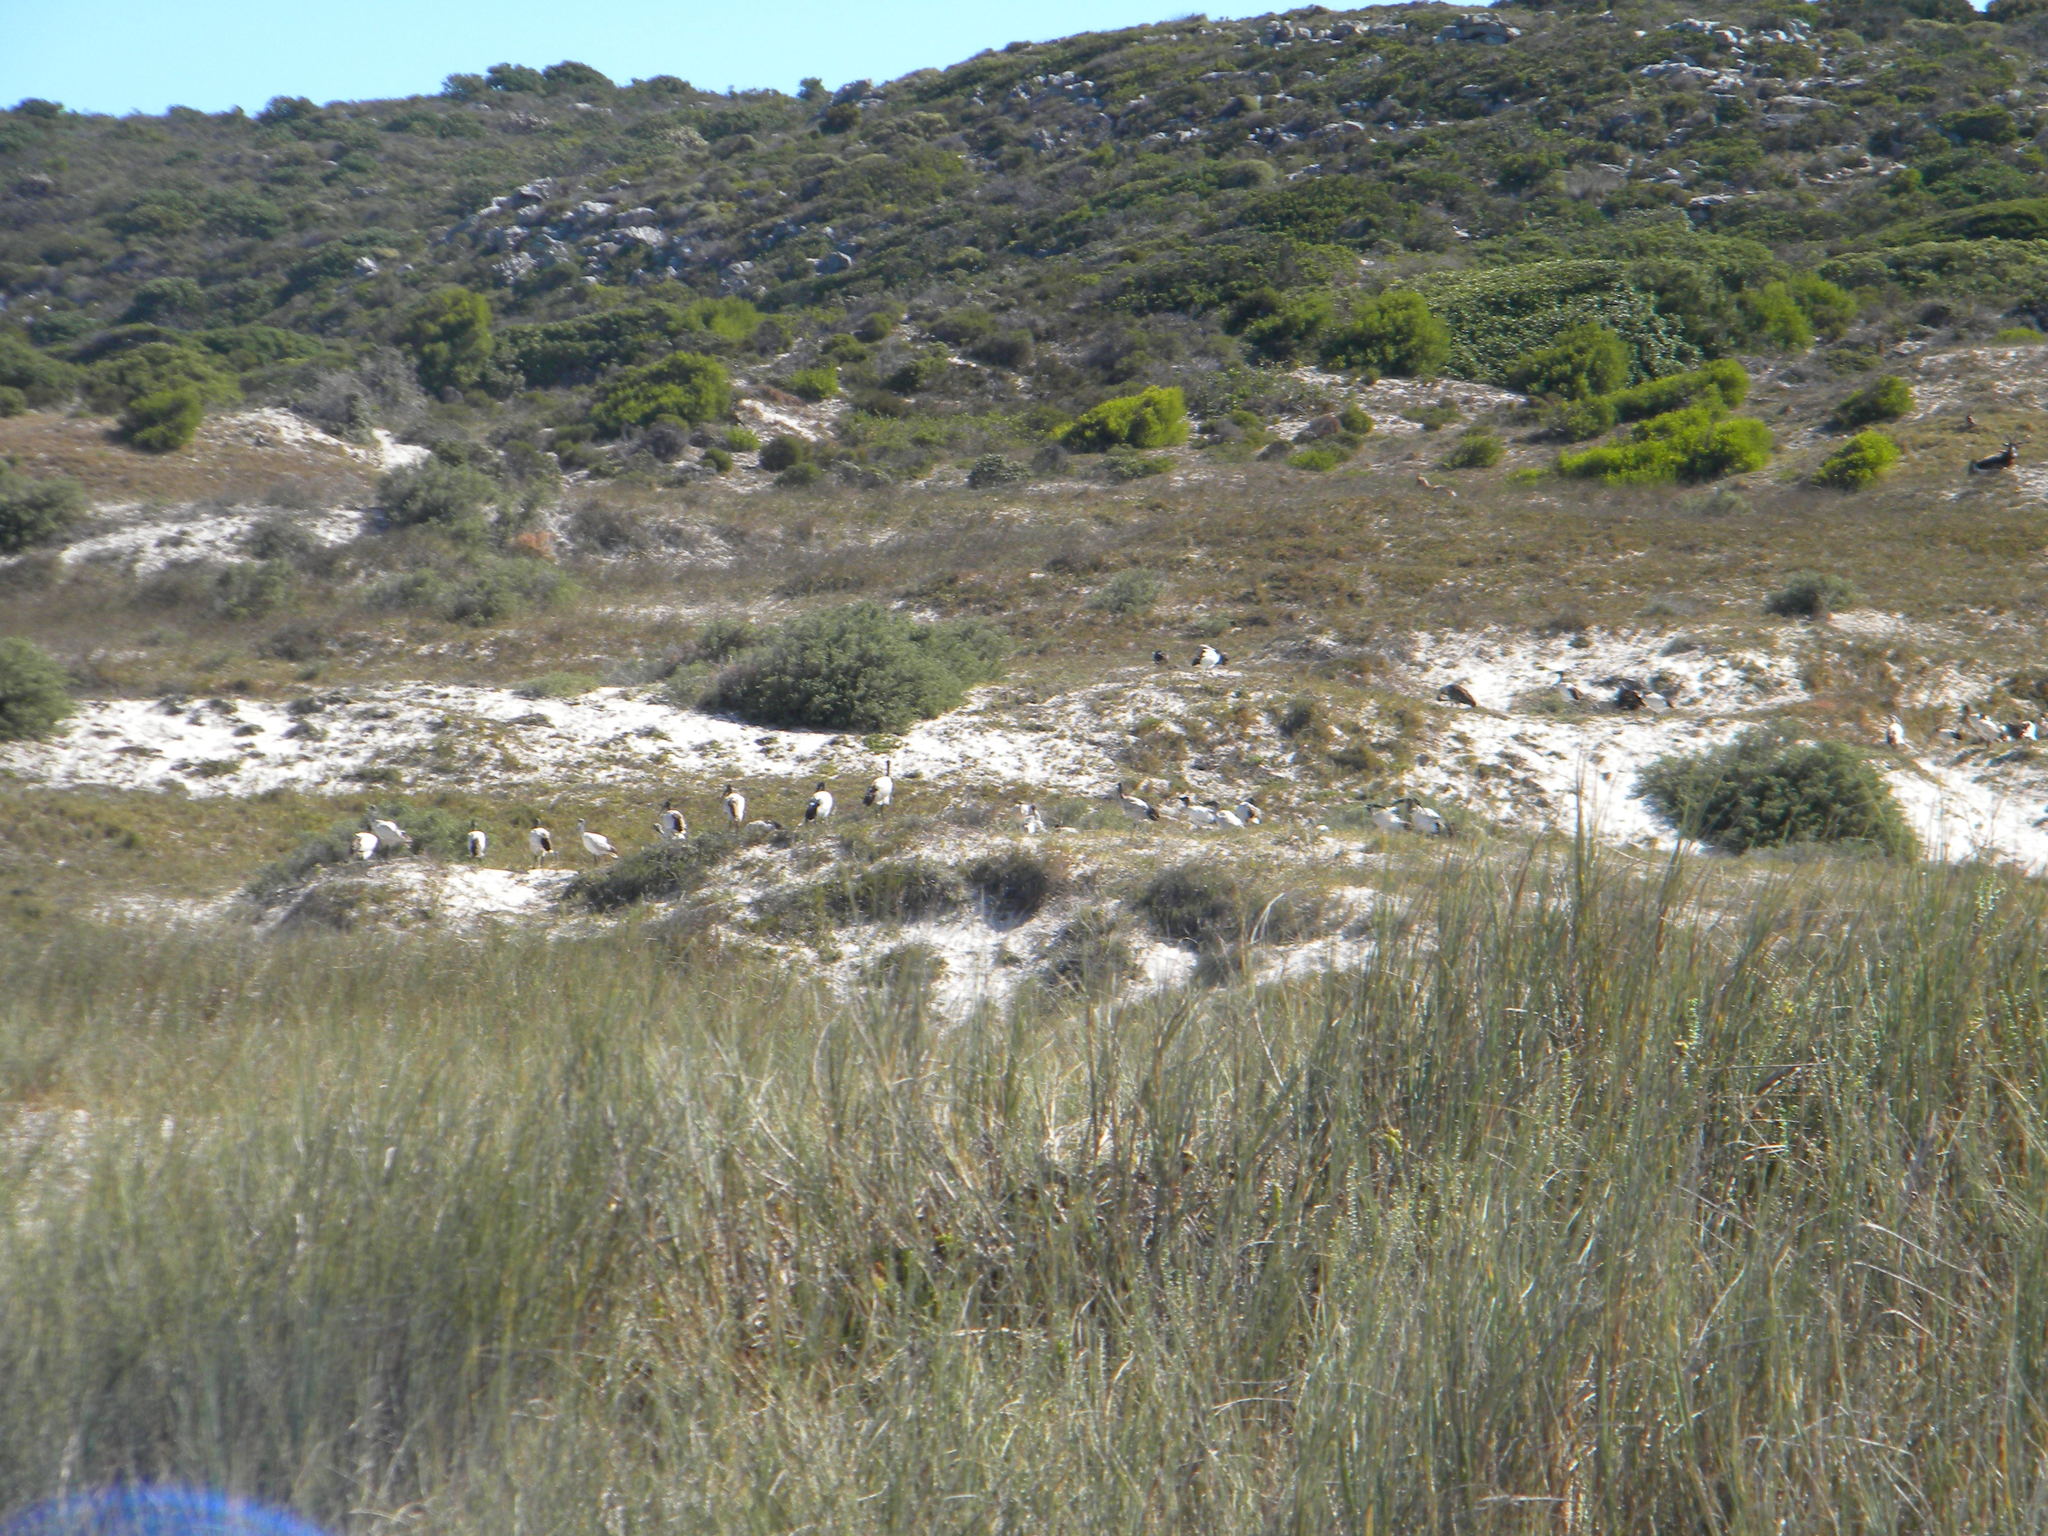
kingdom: Animalia
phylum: Chordata
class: Aves
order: Pelecaniformes
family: Threskiornithidae
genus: Threskiornis
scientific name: Threskiornis aethiopicus
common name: Sacred ibis
